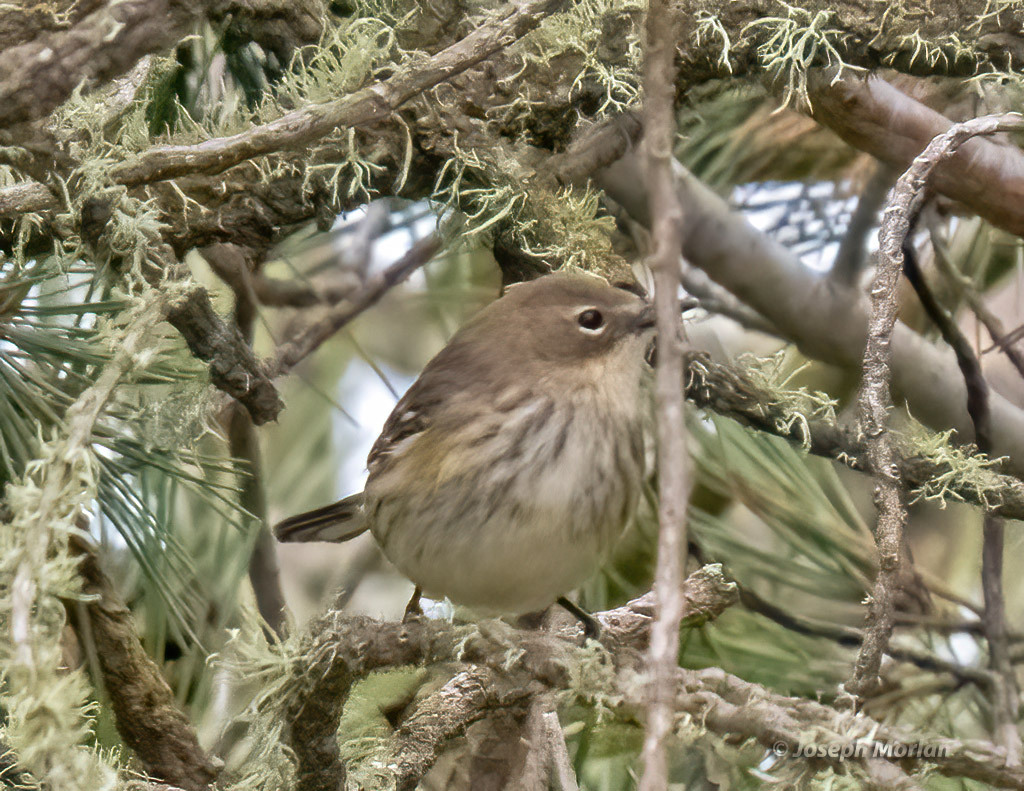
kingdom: Animalia
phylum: Chordata
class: Aves
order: Passeriformes
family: Parulidae
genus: Setophaga
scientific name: Setophaga coronata
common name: Myrtle warbler
